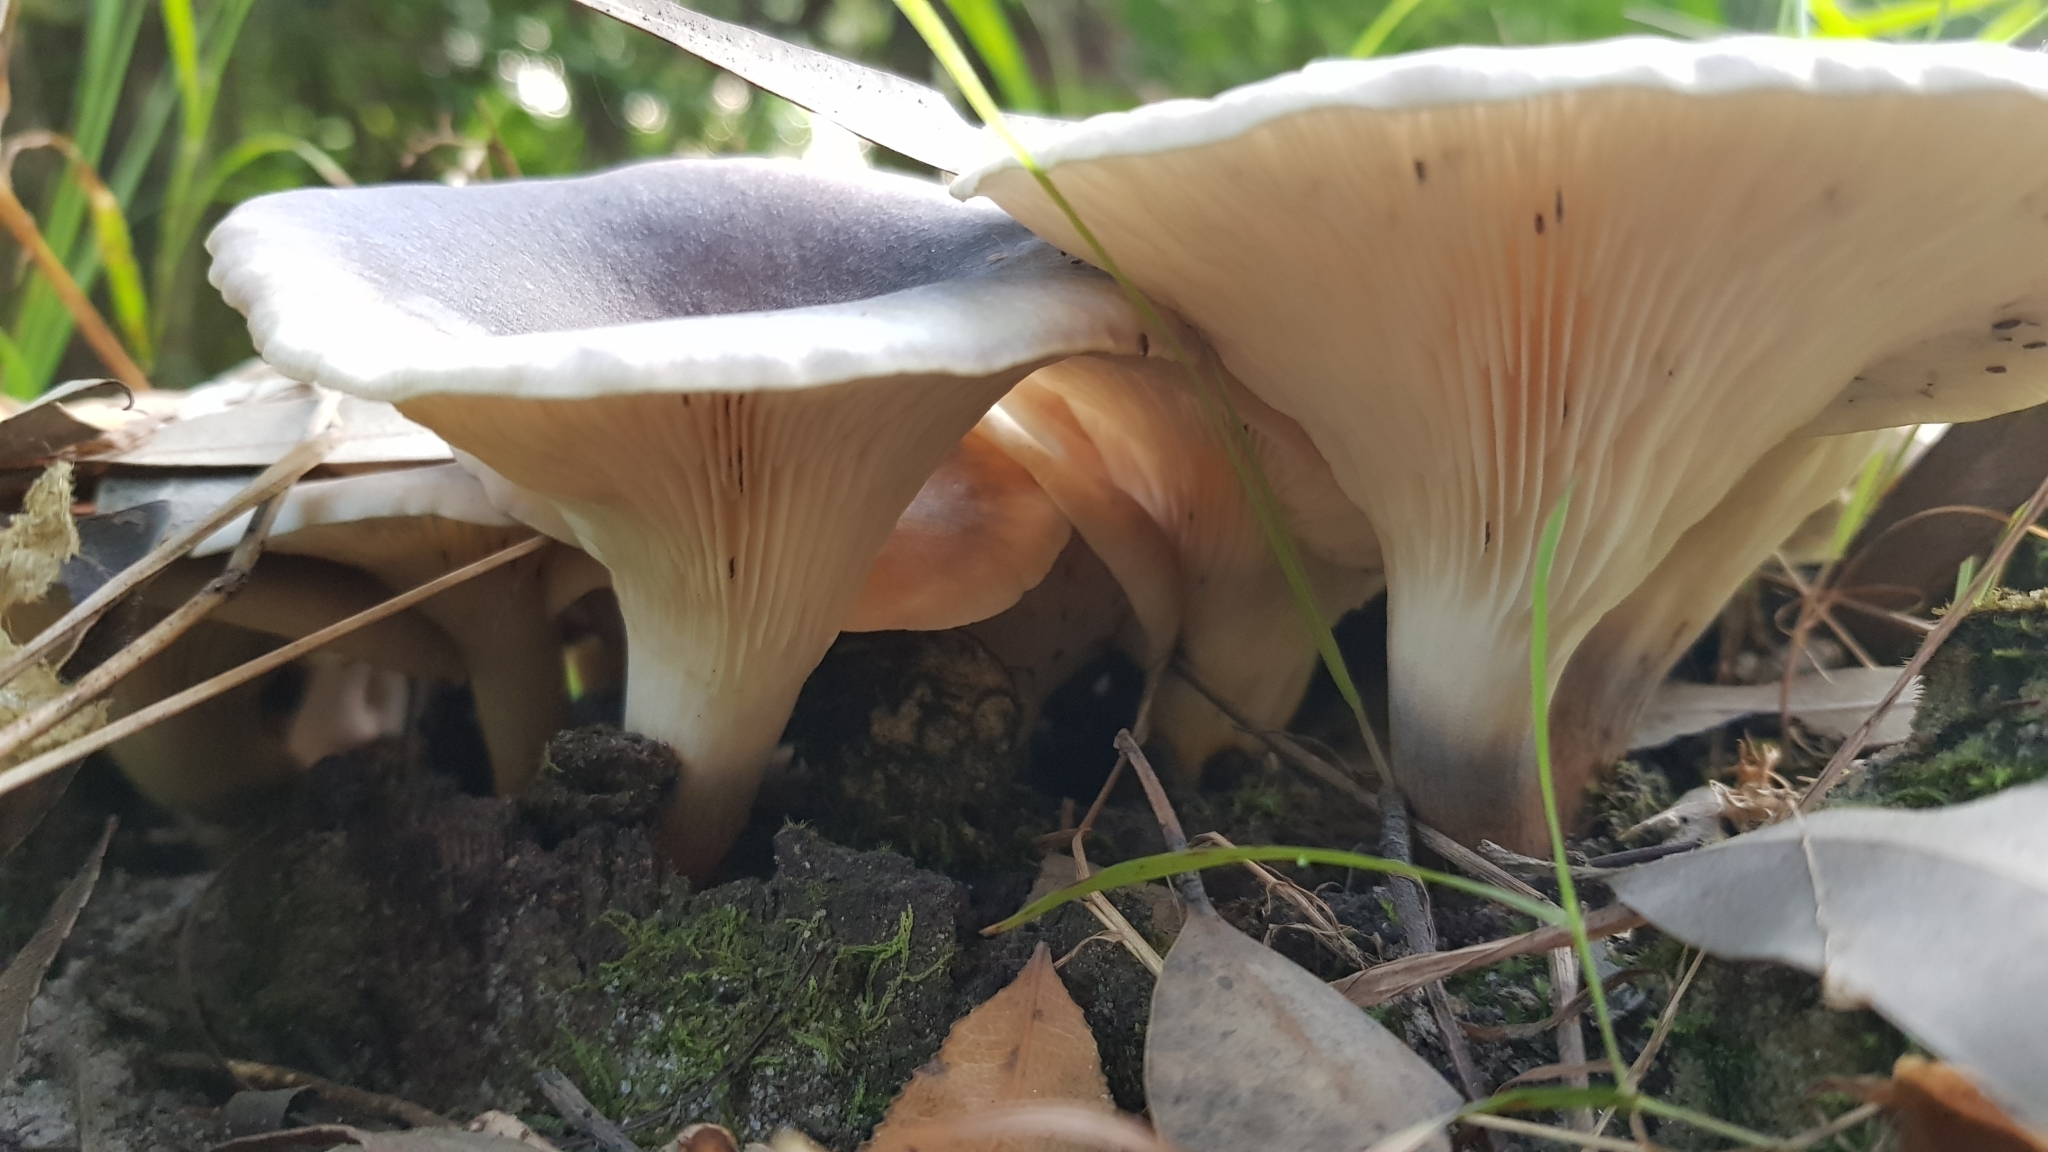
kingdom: Fungi
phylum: Basidiomycota
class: Agaricomycetes
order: Agaricales
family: Omphalotaceae
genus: Omphalotus
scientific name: Omphalotus nidiformis
